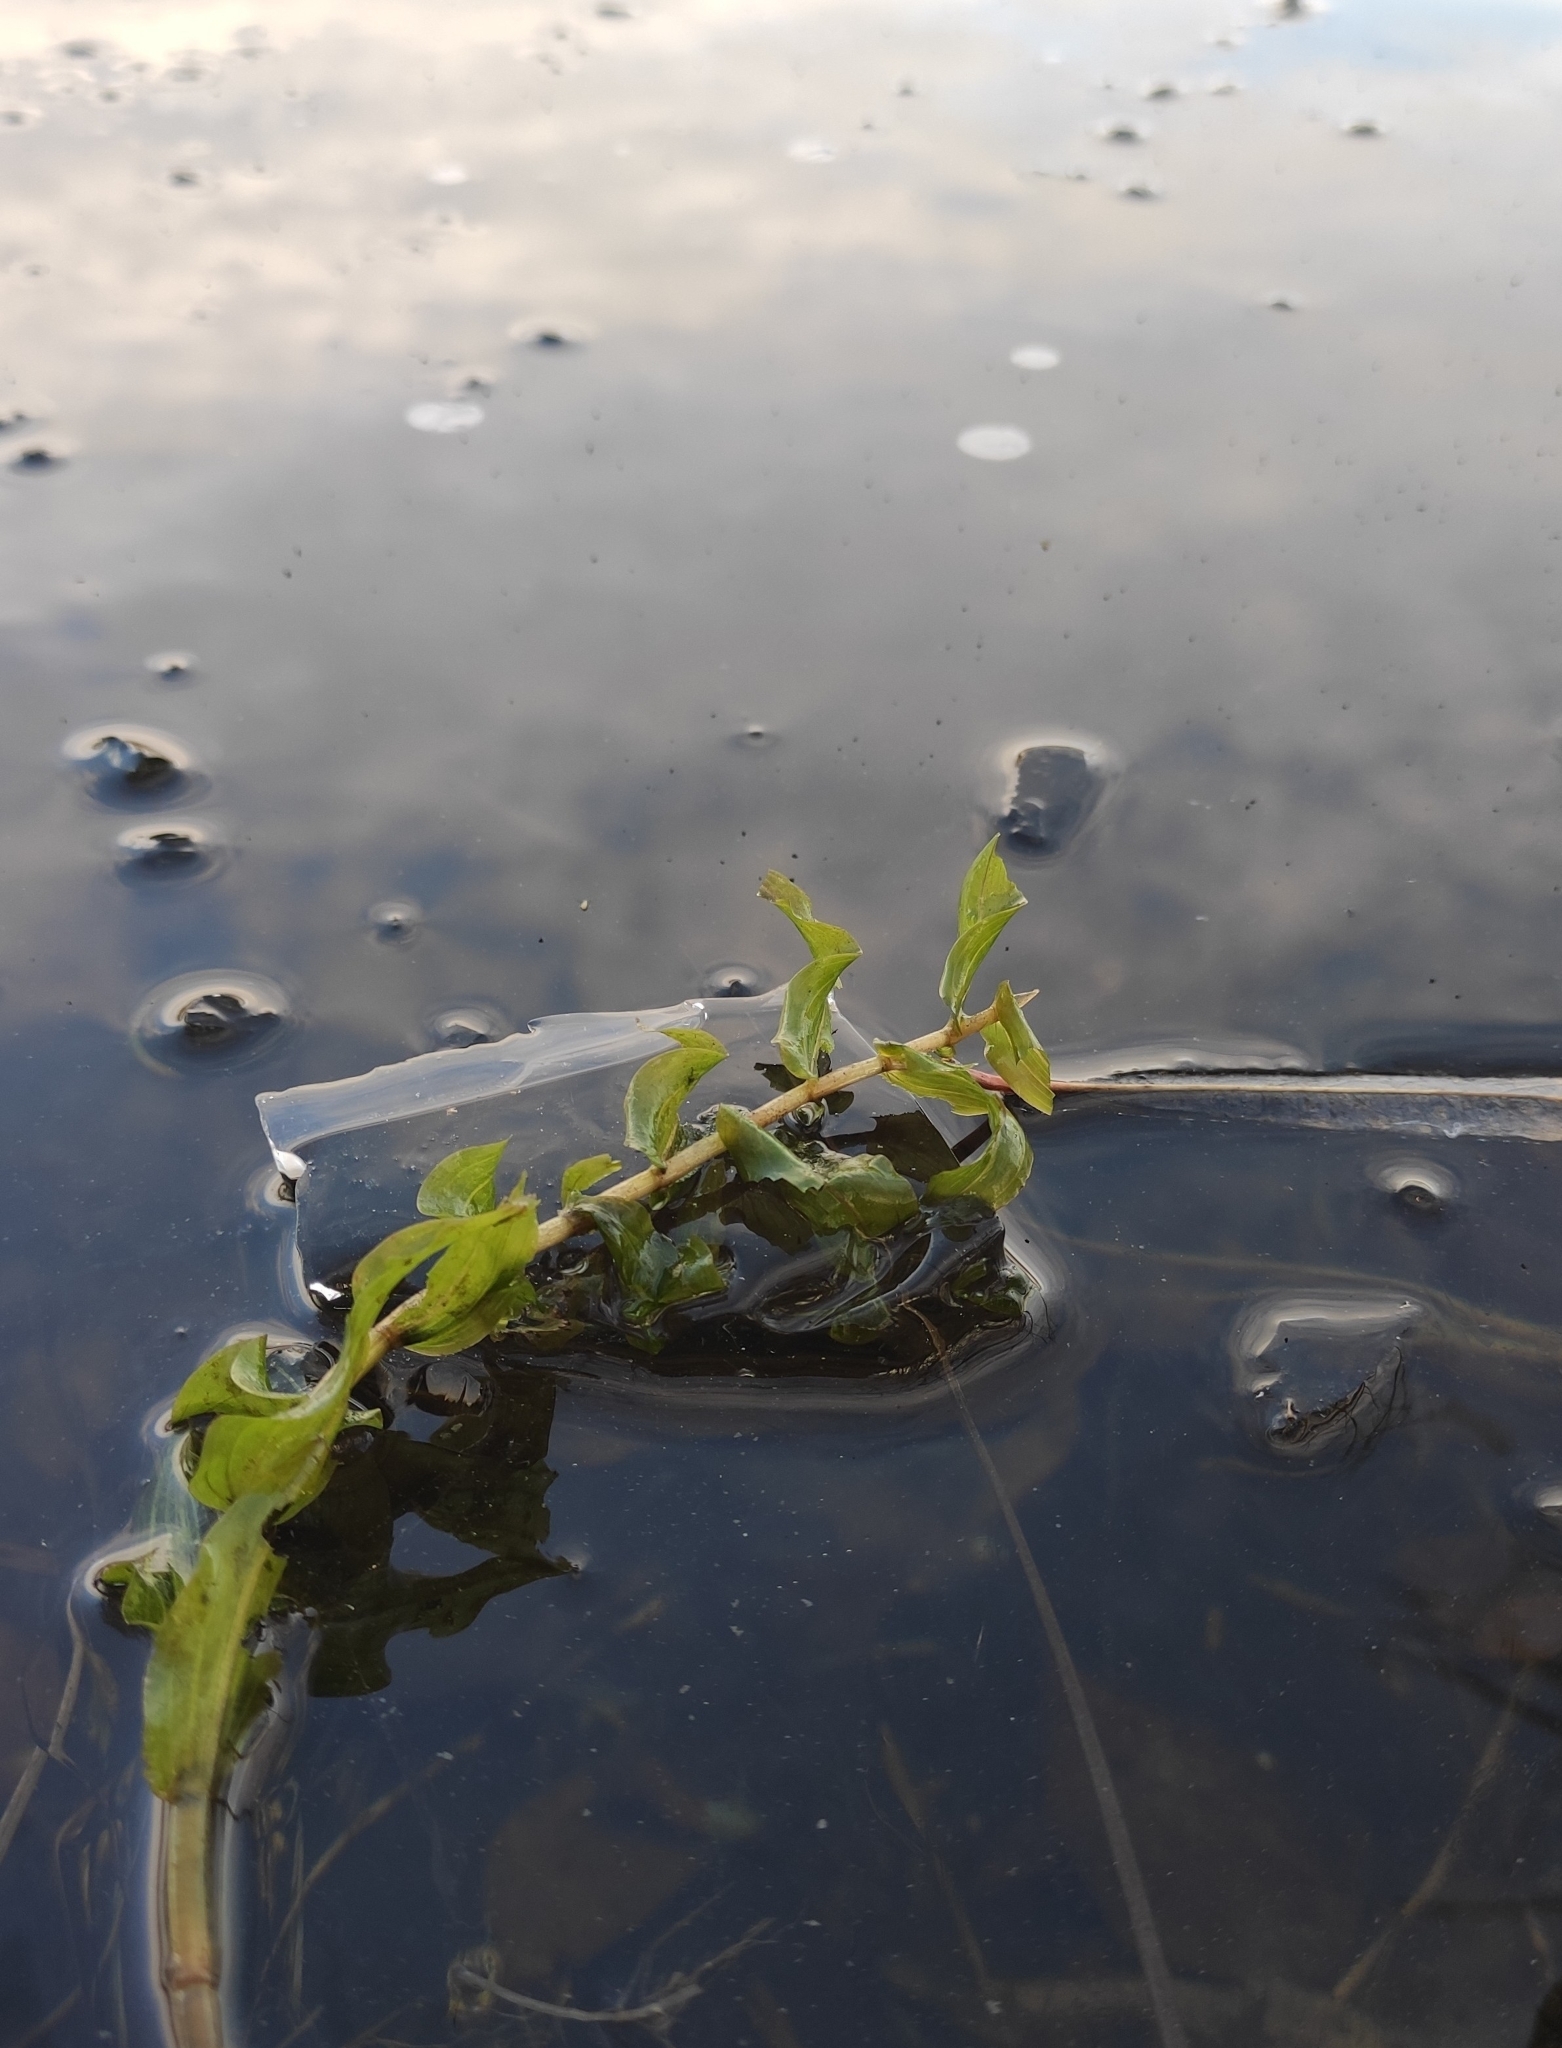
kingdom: Plantae
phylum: Tracheophyta
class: Liliopsida
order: Alismatales
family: Potamogetonaceae
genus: Potamogeton
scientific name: Potamogeton perfoliatus
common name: Perfoliate pondweed
